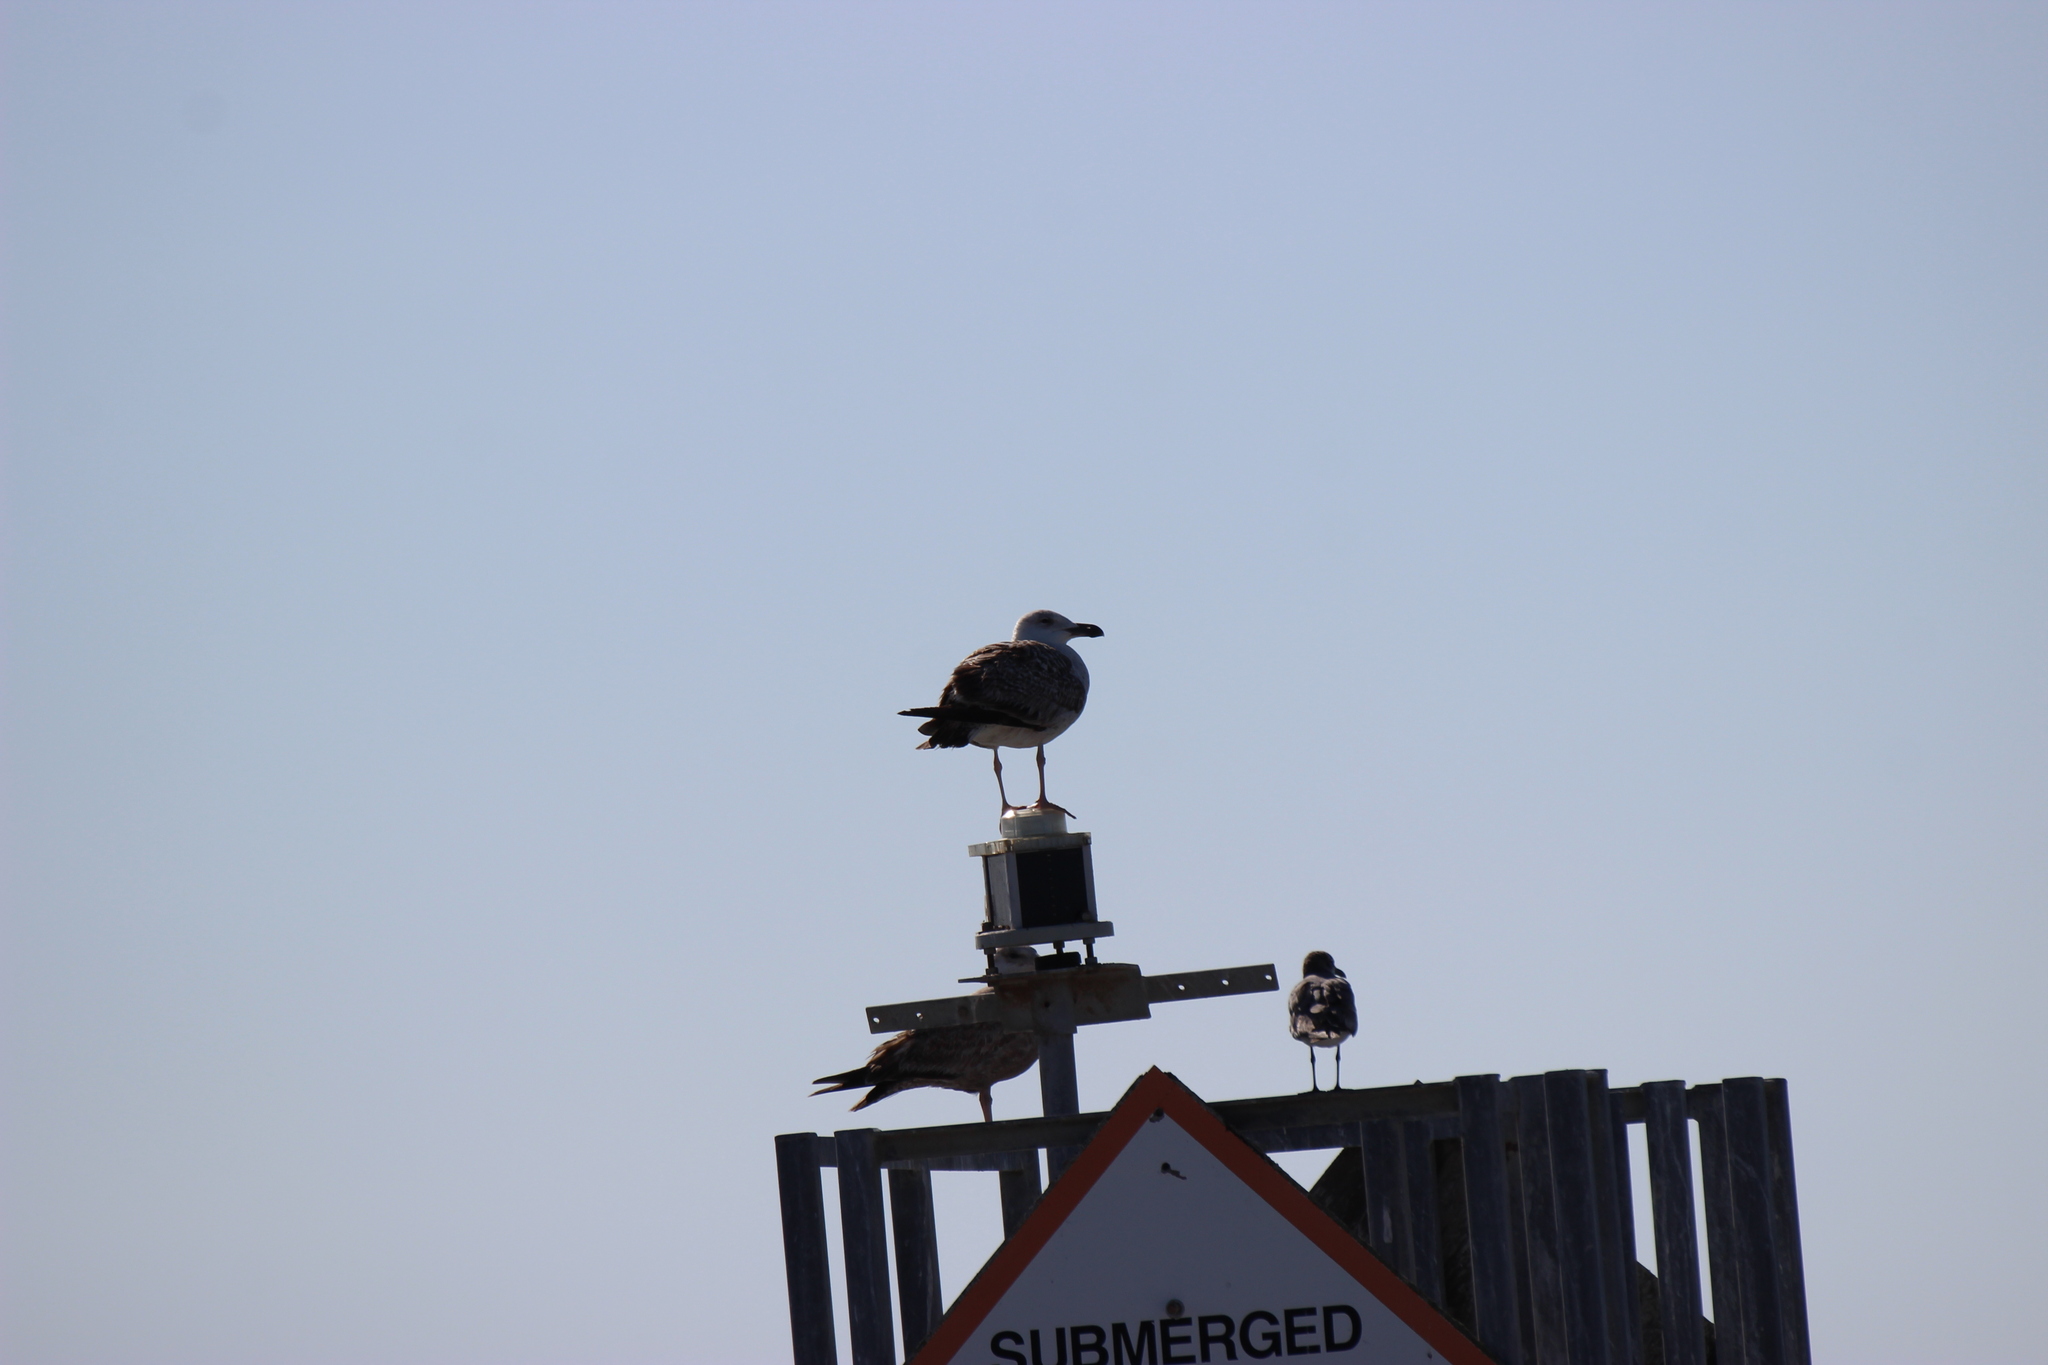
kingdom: Animalia
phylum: Chordata
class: Aves
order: Charadriiformes
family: Laridae
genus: Larus
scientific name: Larus marinus
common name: Great black-backed gull
